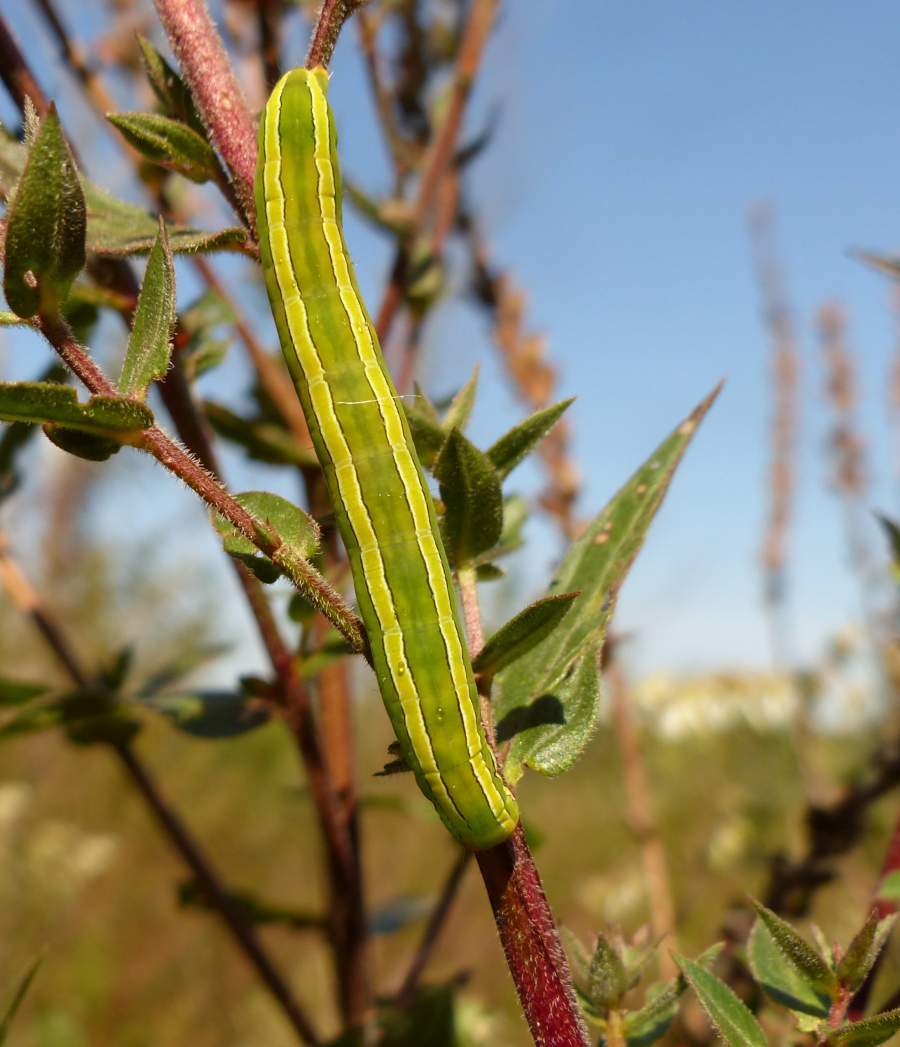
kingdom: Animalia
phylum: Arthropoda
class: Insecta
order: Lepidoptera
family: Noctuidae
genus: Melanchra
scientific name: Melanchra assimilis
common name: Black arches
